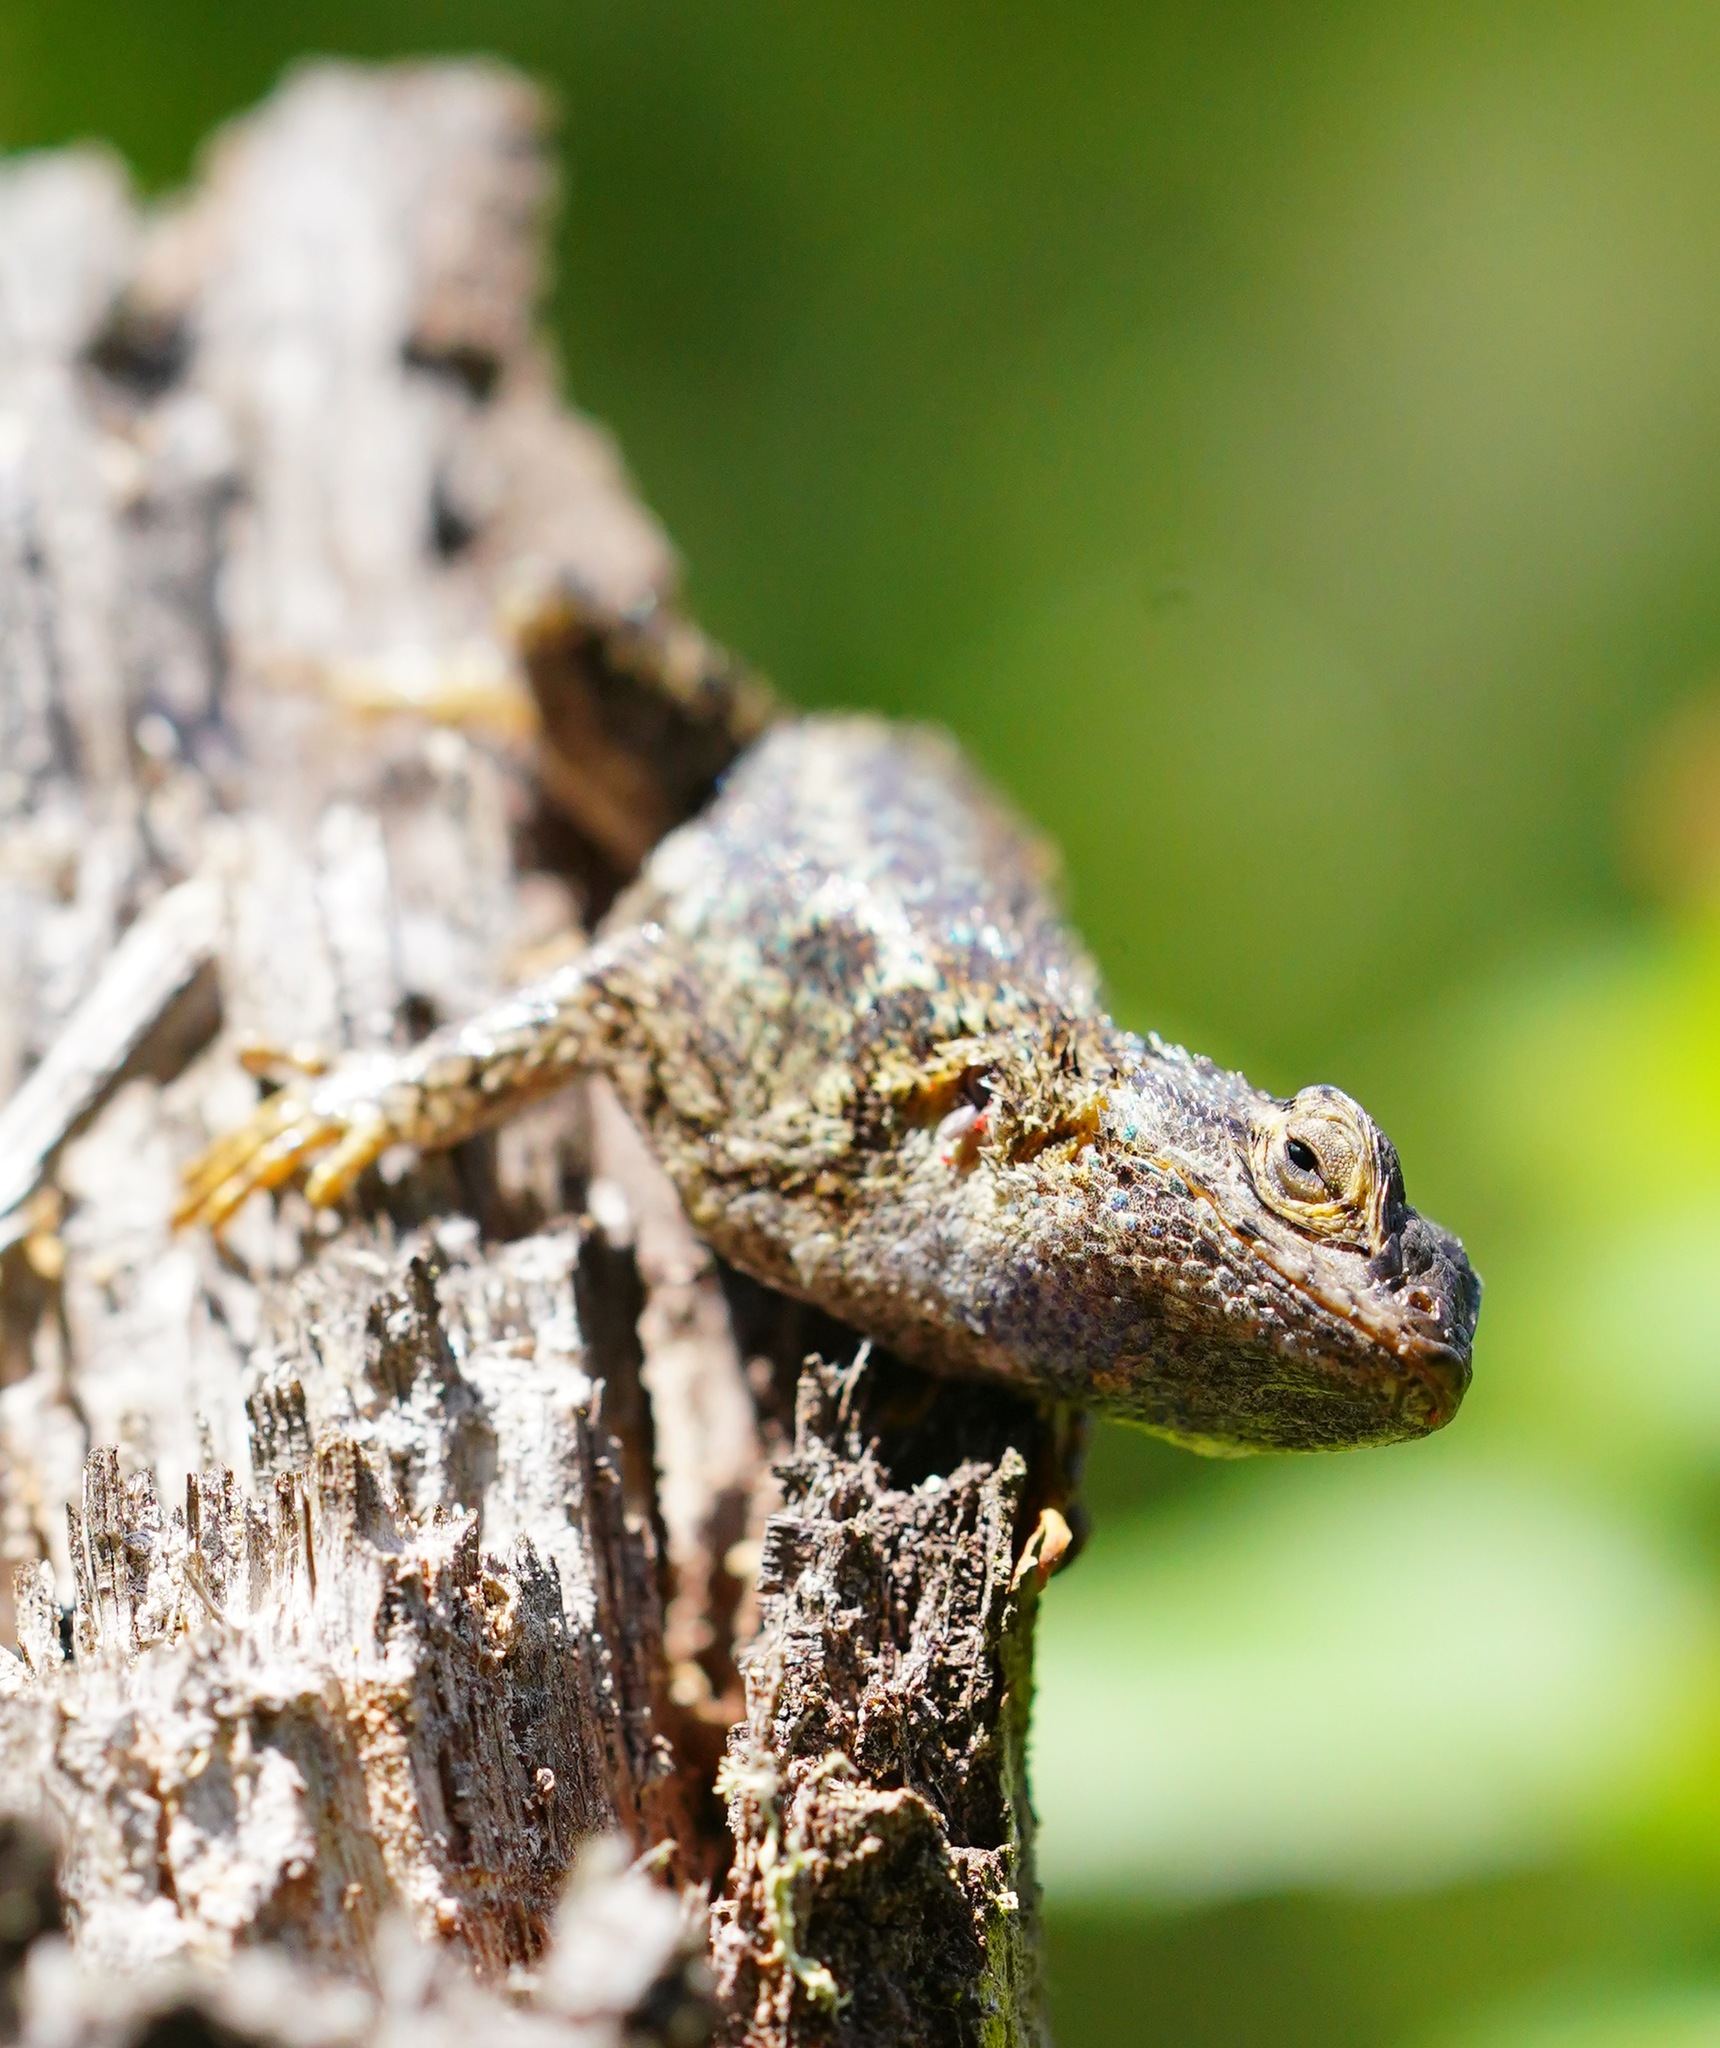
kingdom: Animalia
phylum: Chordata
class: Squamata
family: Phrynosomatidae
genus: Sceloporus
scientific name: Sceloporus occidentalis
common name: Western fence lizard
